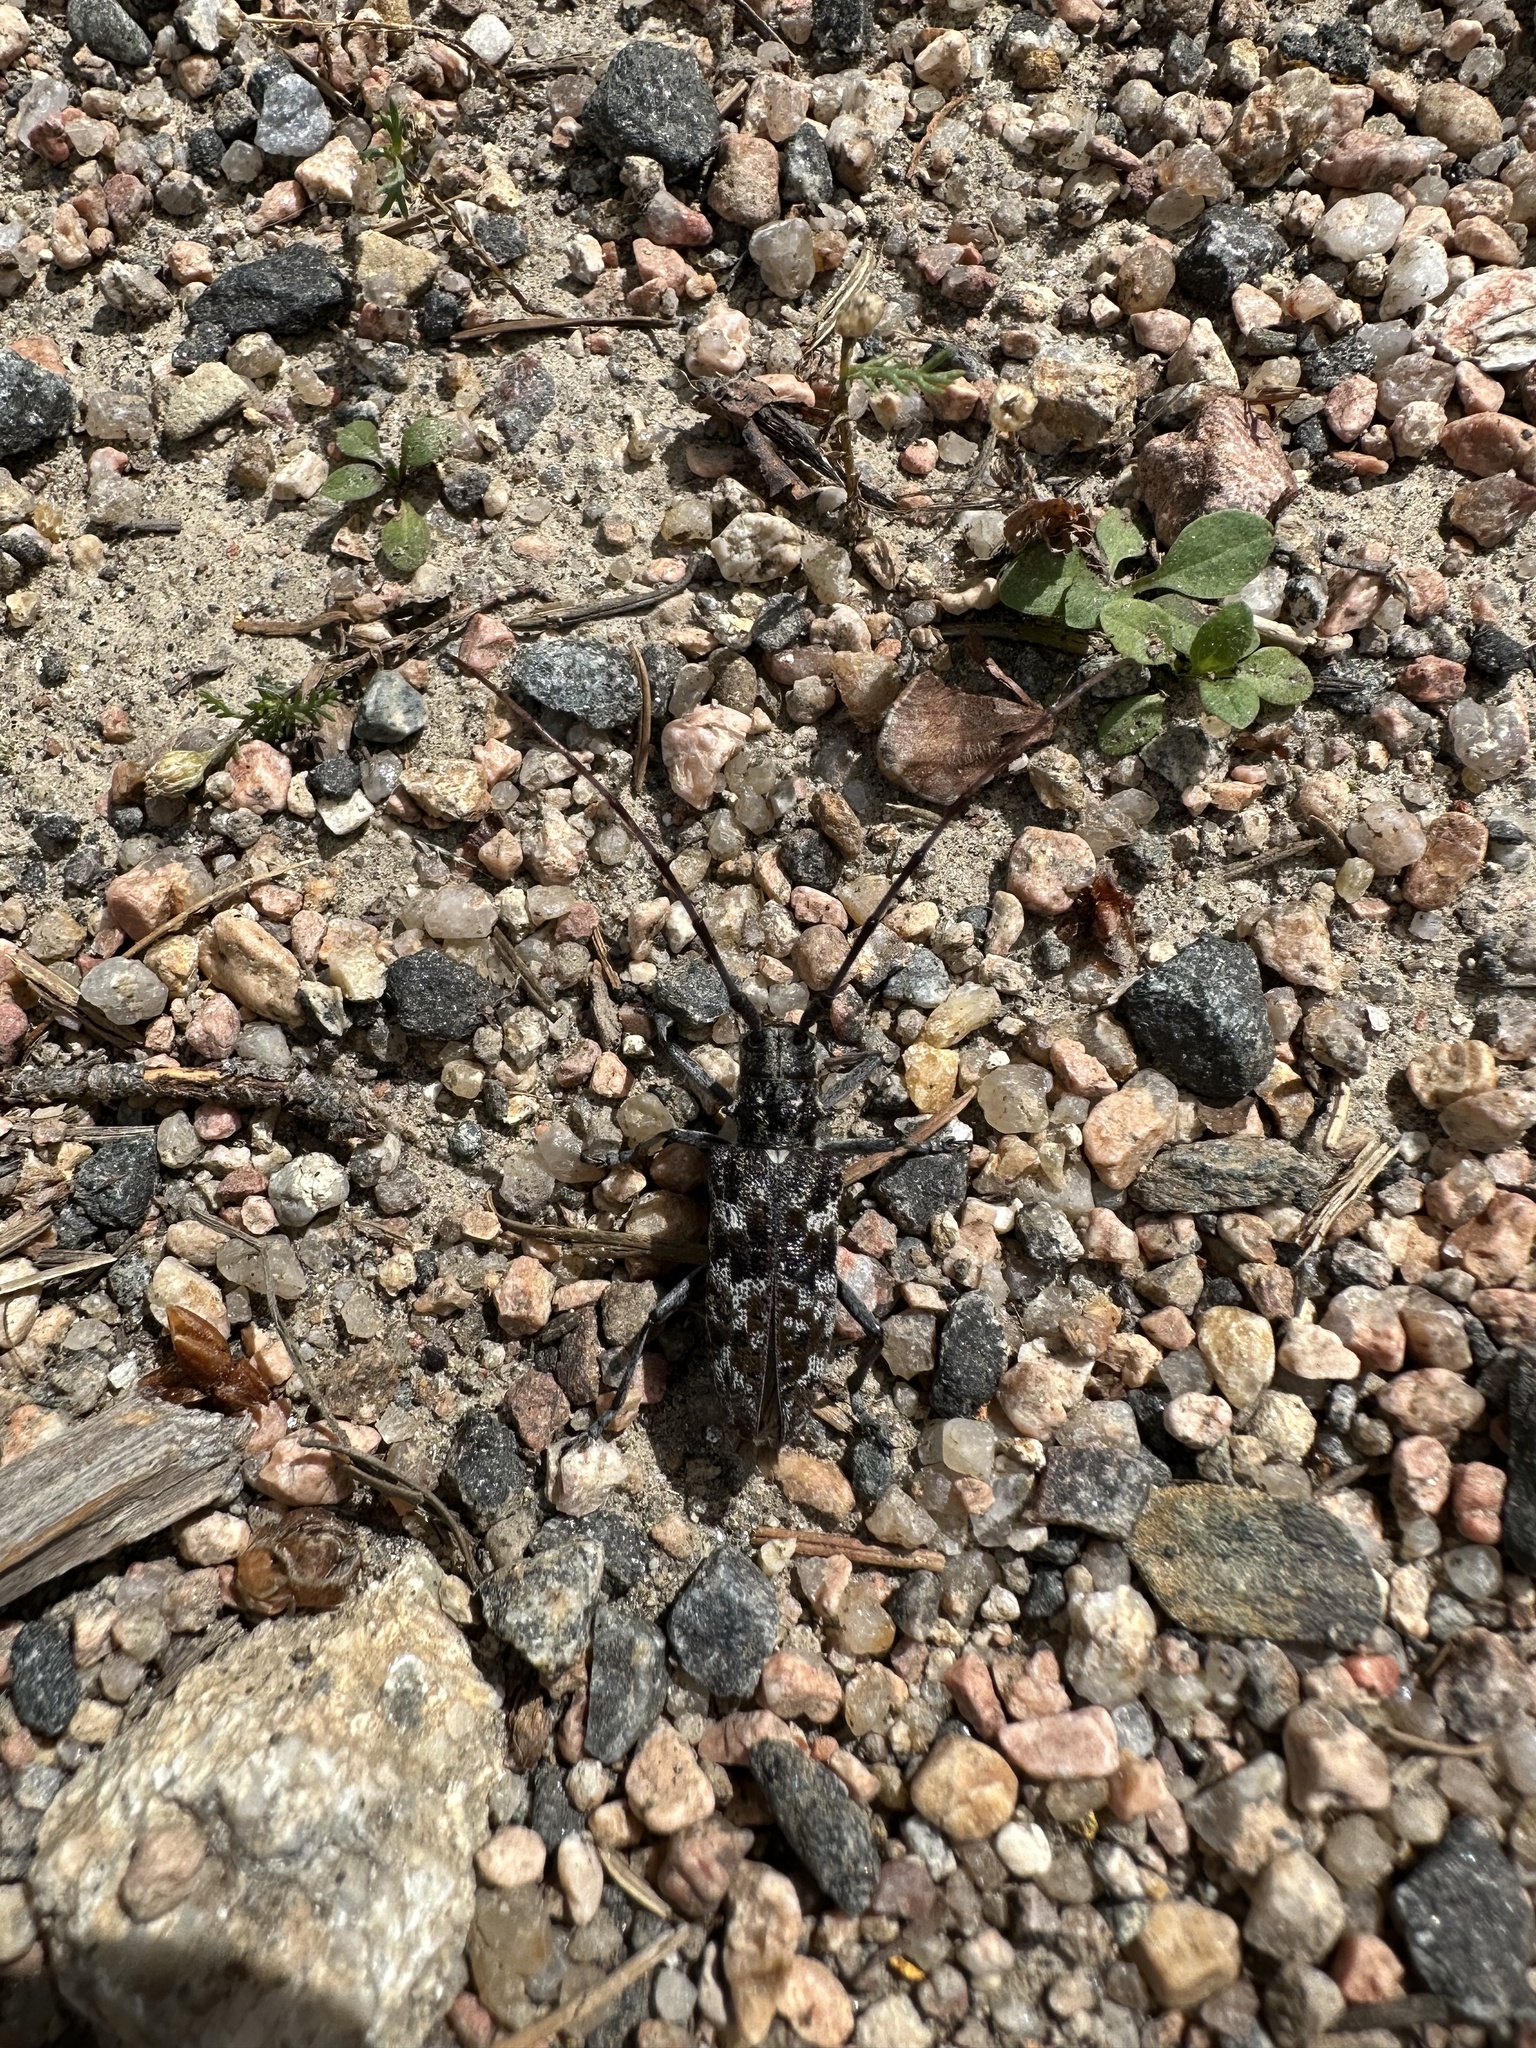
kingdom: Animalia
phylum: Arthropoda
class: Insecta
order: Coleoptera
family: Cerambycidae
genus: Monochamus
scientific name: Monochamus clamator
